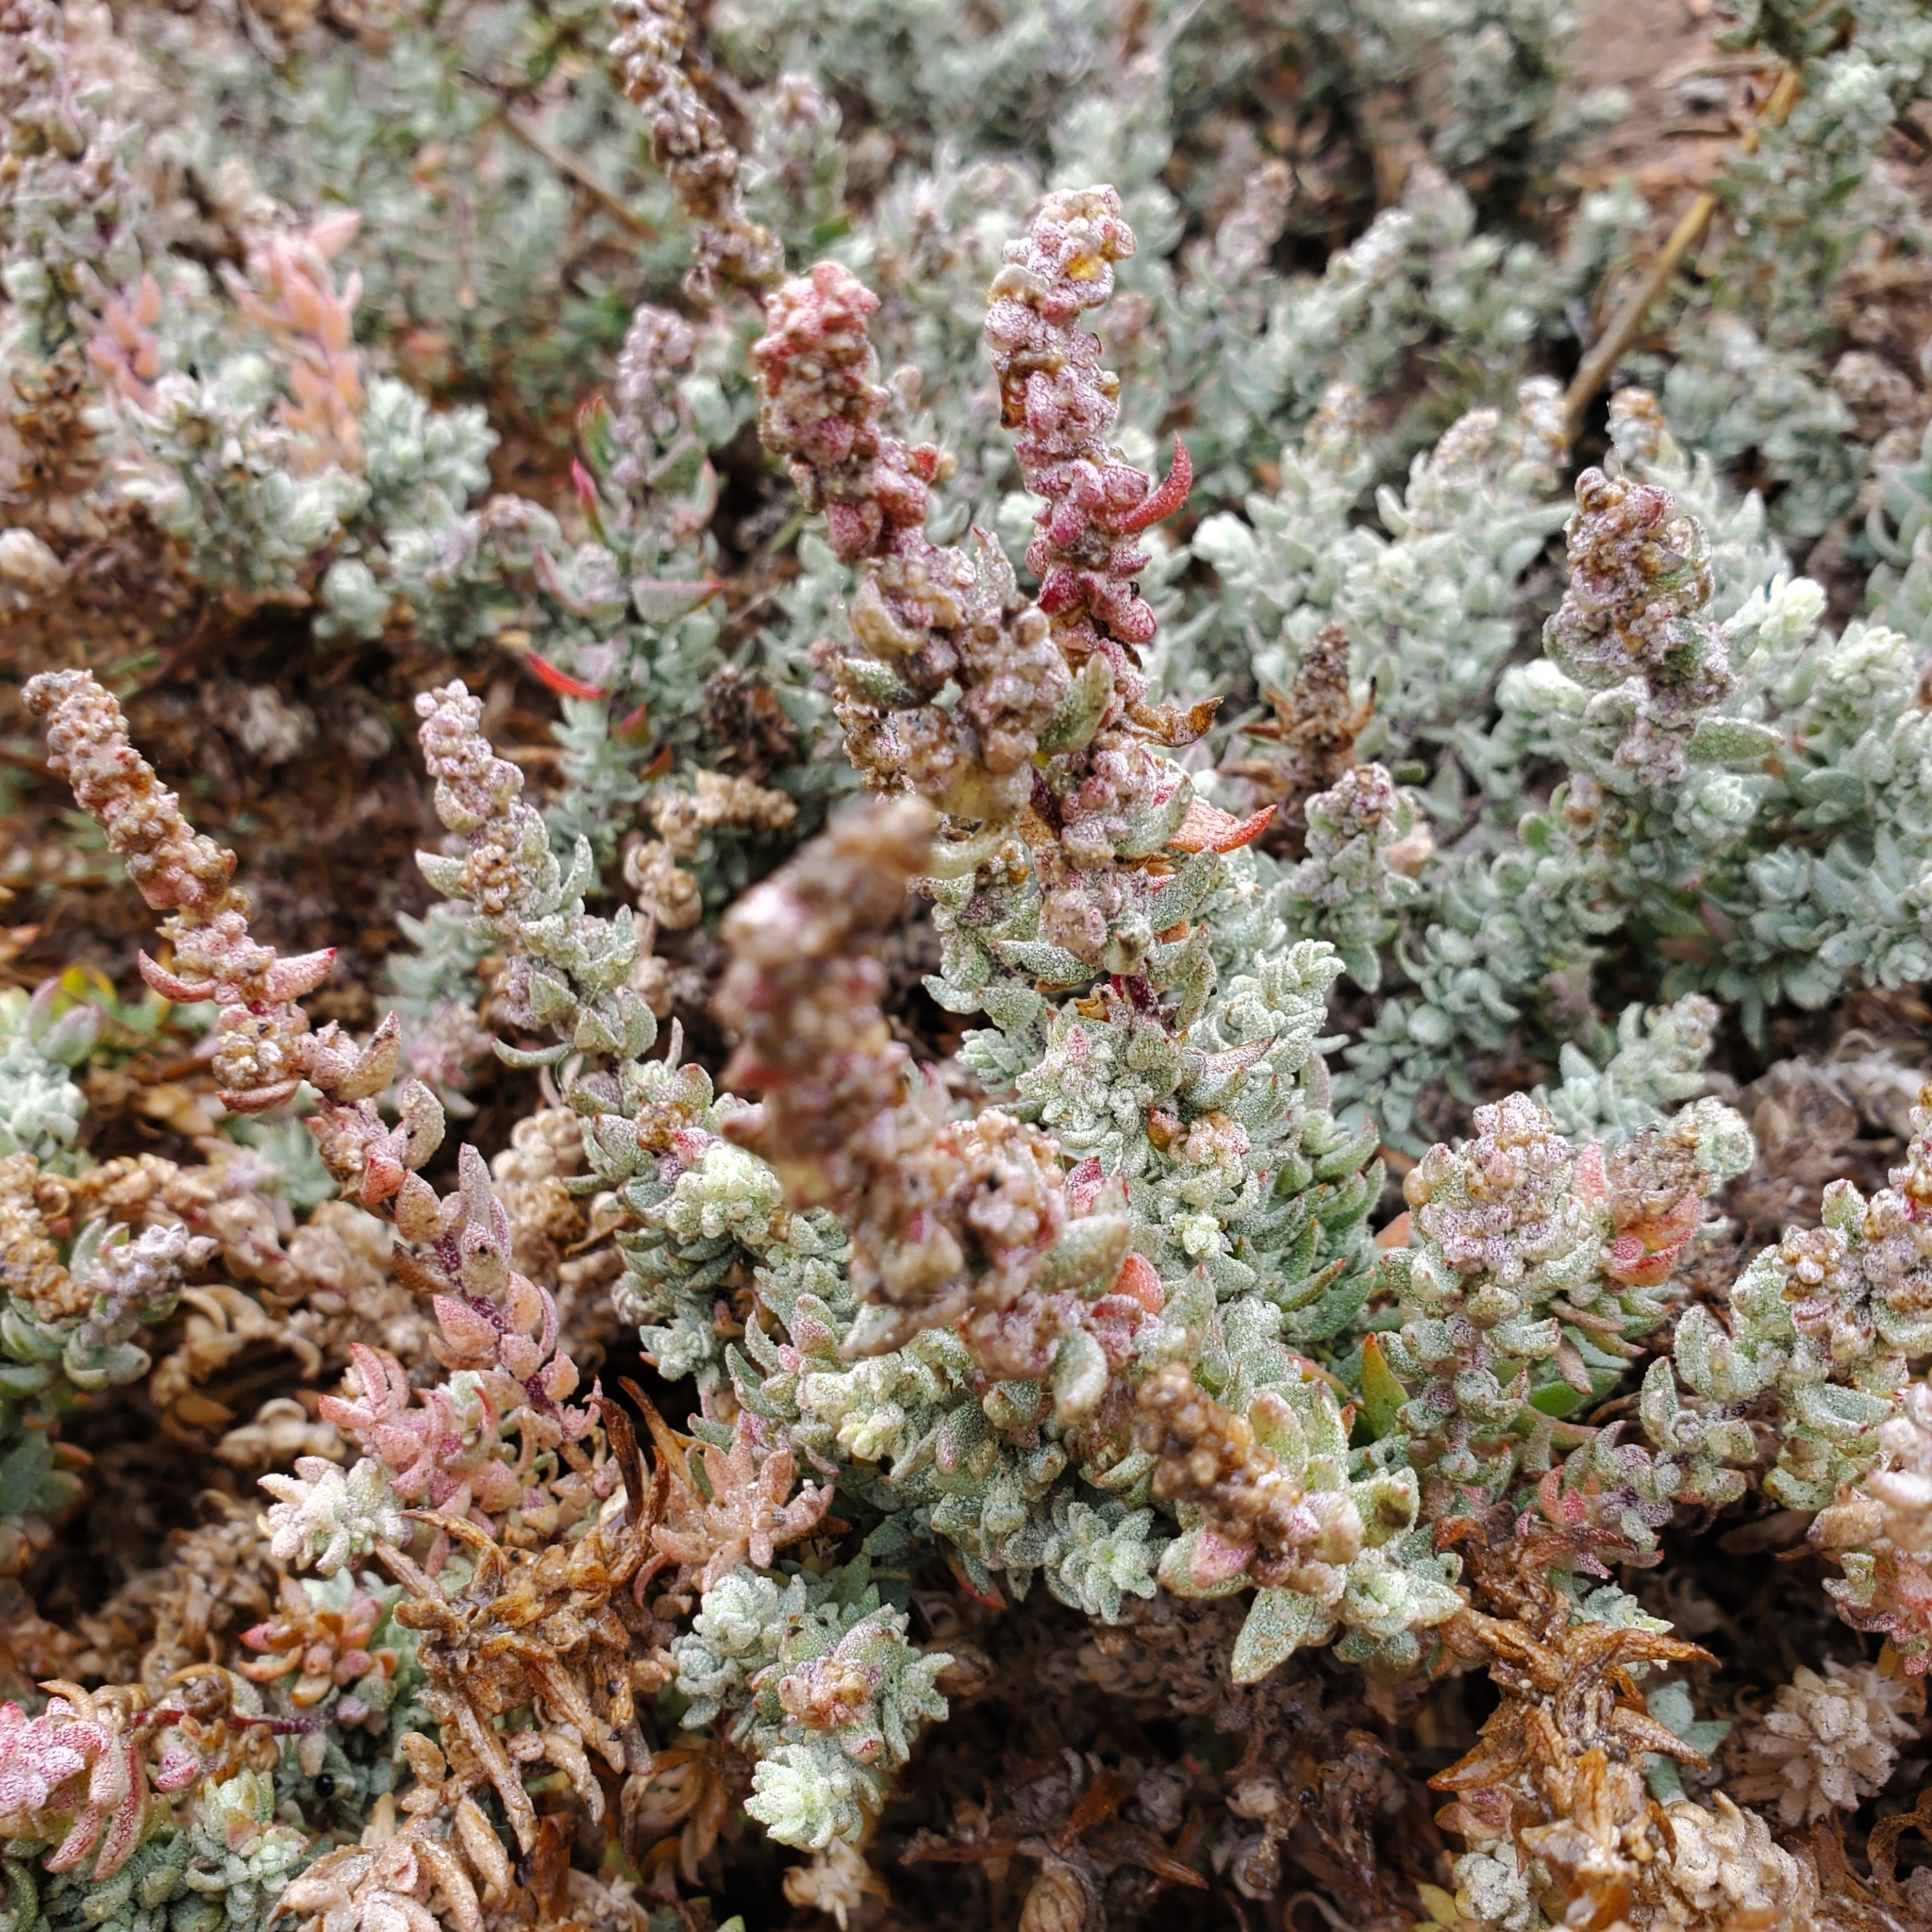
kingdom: Plantae
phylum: Tracheophyta
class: Magnoliopsida
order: Caryophyllales
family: Amaranthaceae
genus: Extriplex
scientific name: Extriplex californica
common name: California saltbush
